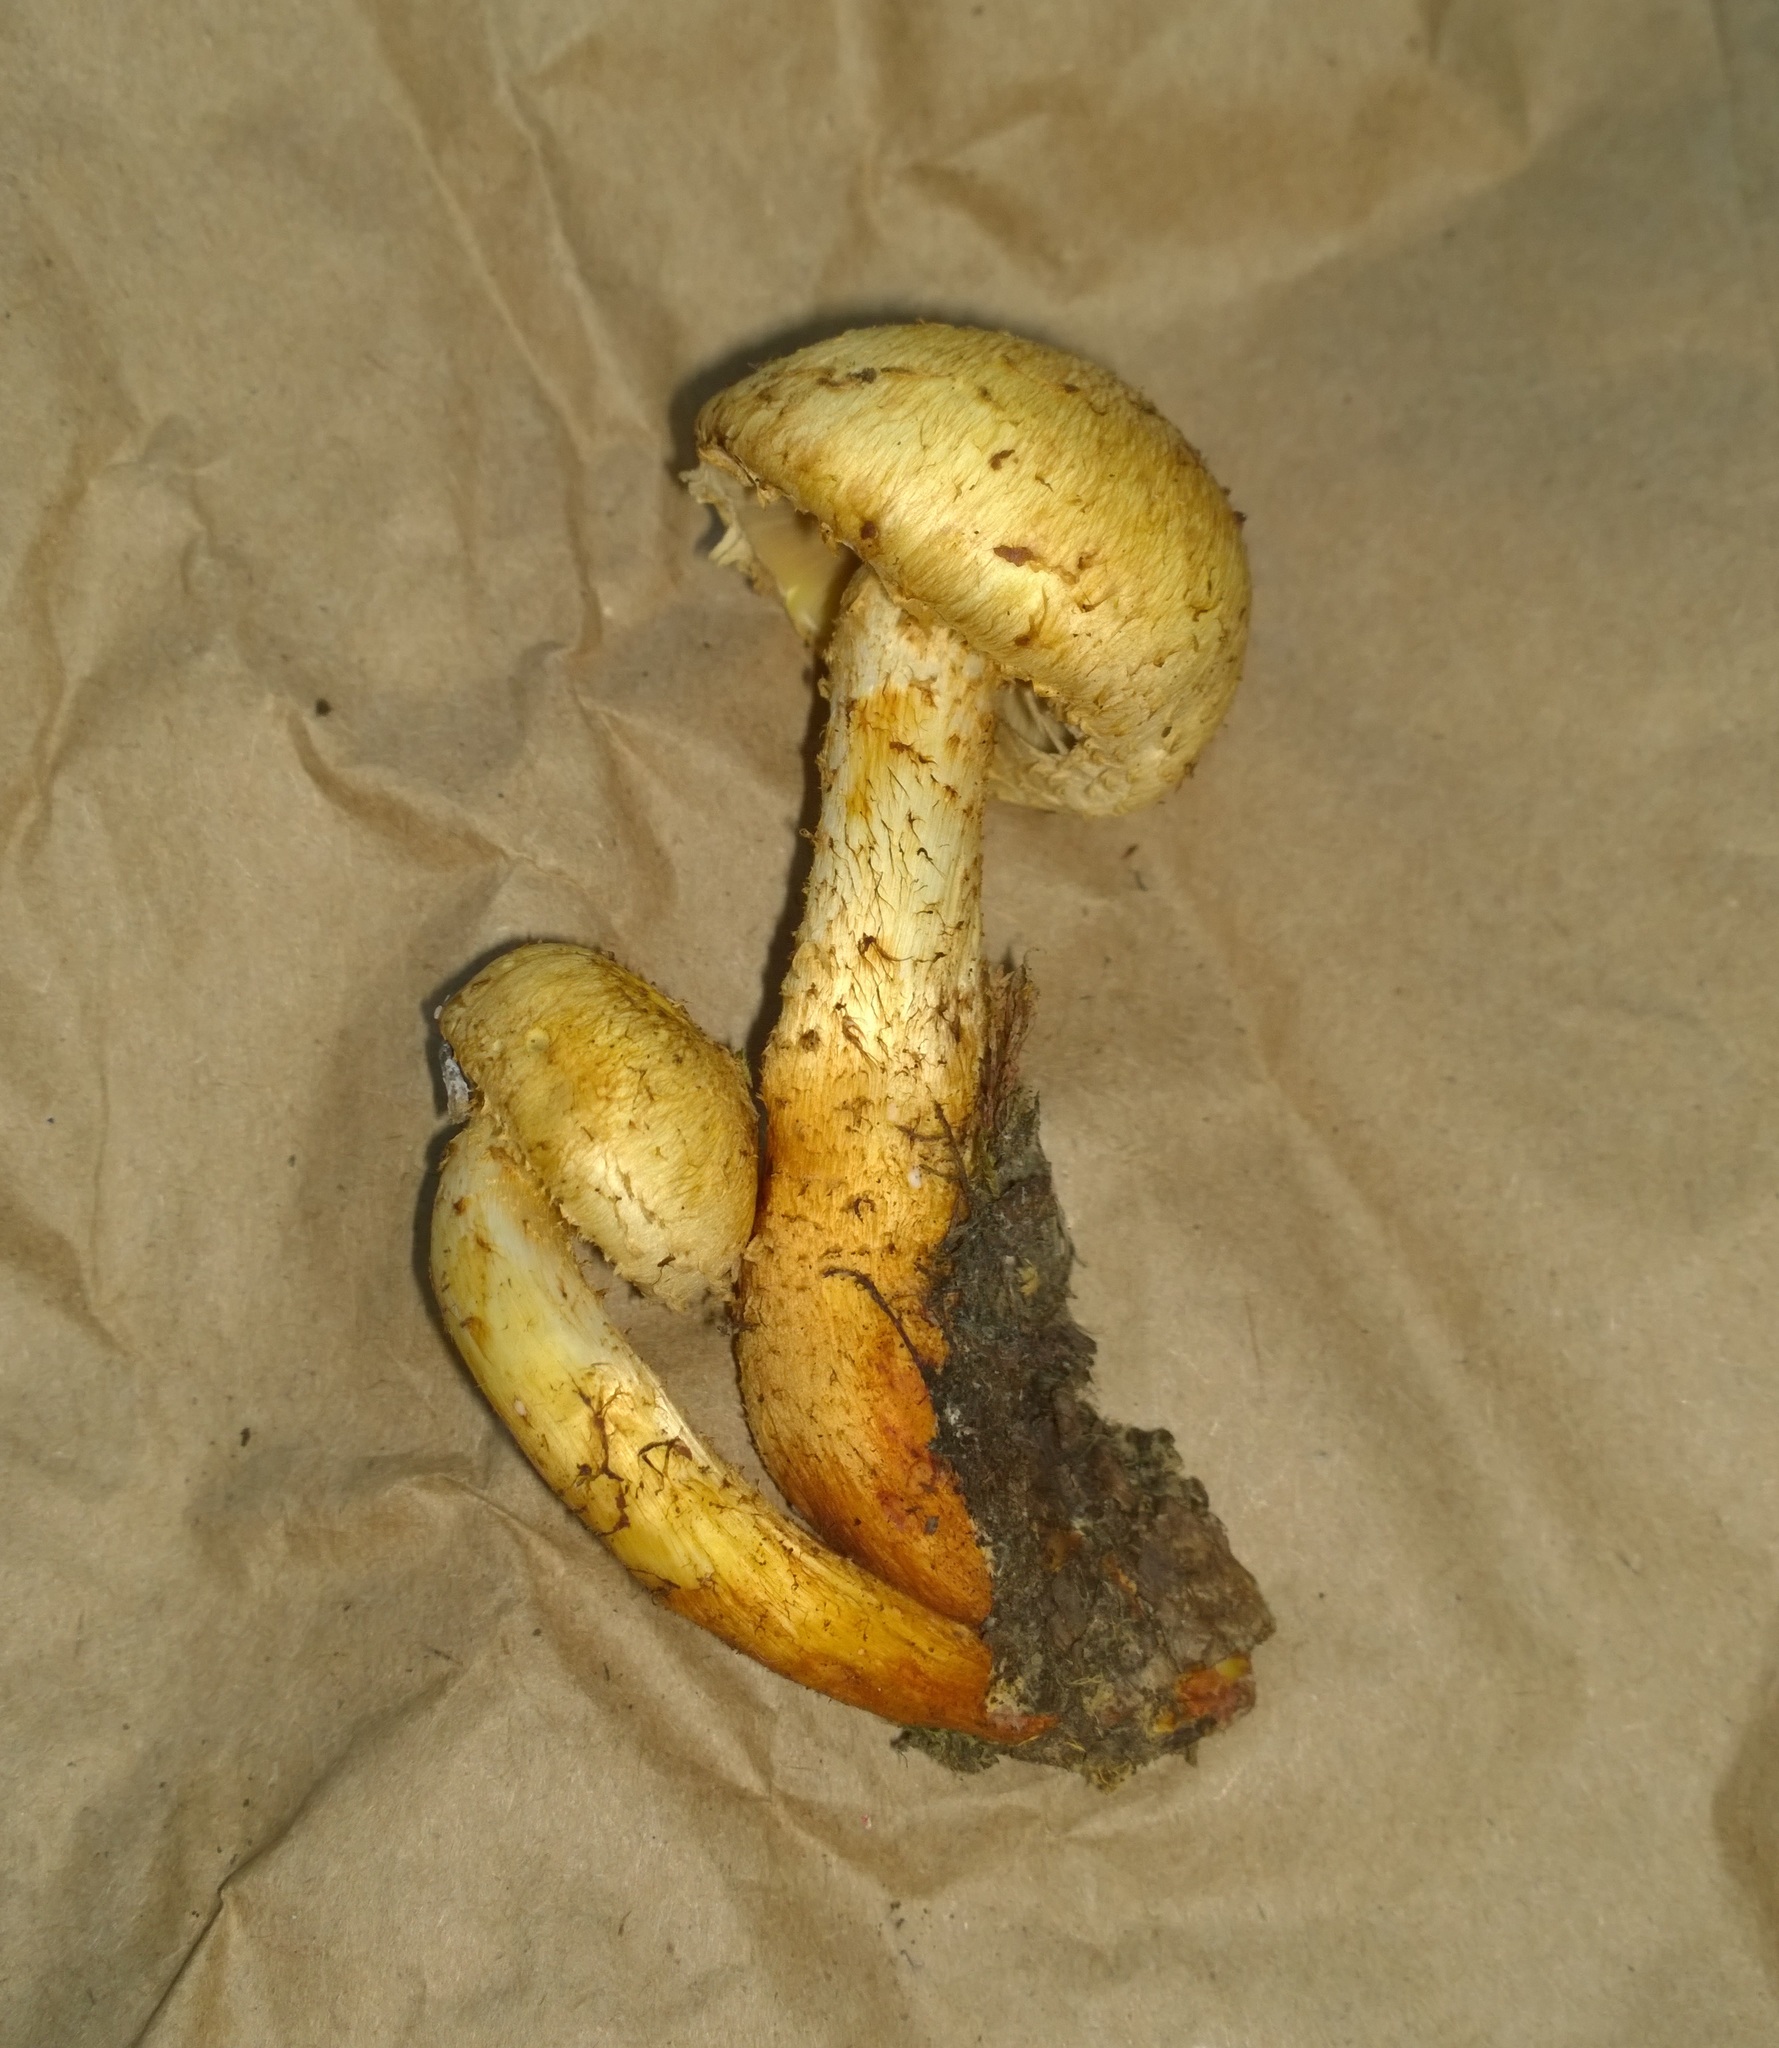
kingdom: Fungi
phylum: Basidiomycota
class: Agaricomycetes
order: Agaricales
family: Strophariaceae
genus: Pholiota
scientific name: Pholiota squarrosa
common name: Shaggy pholiota
